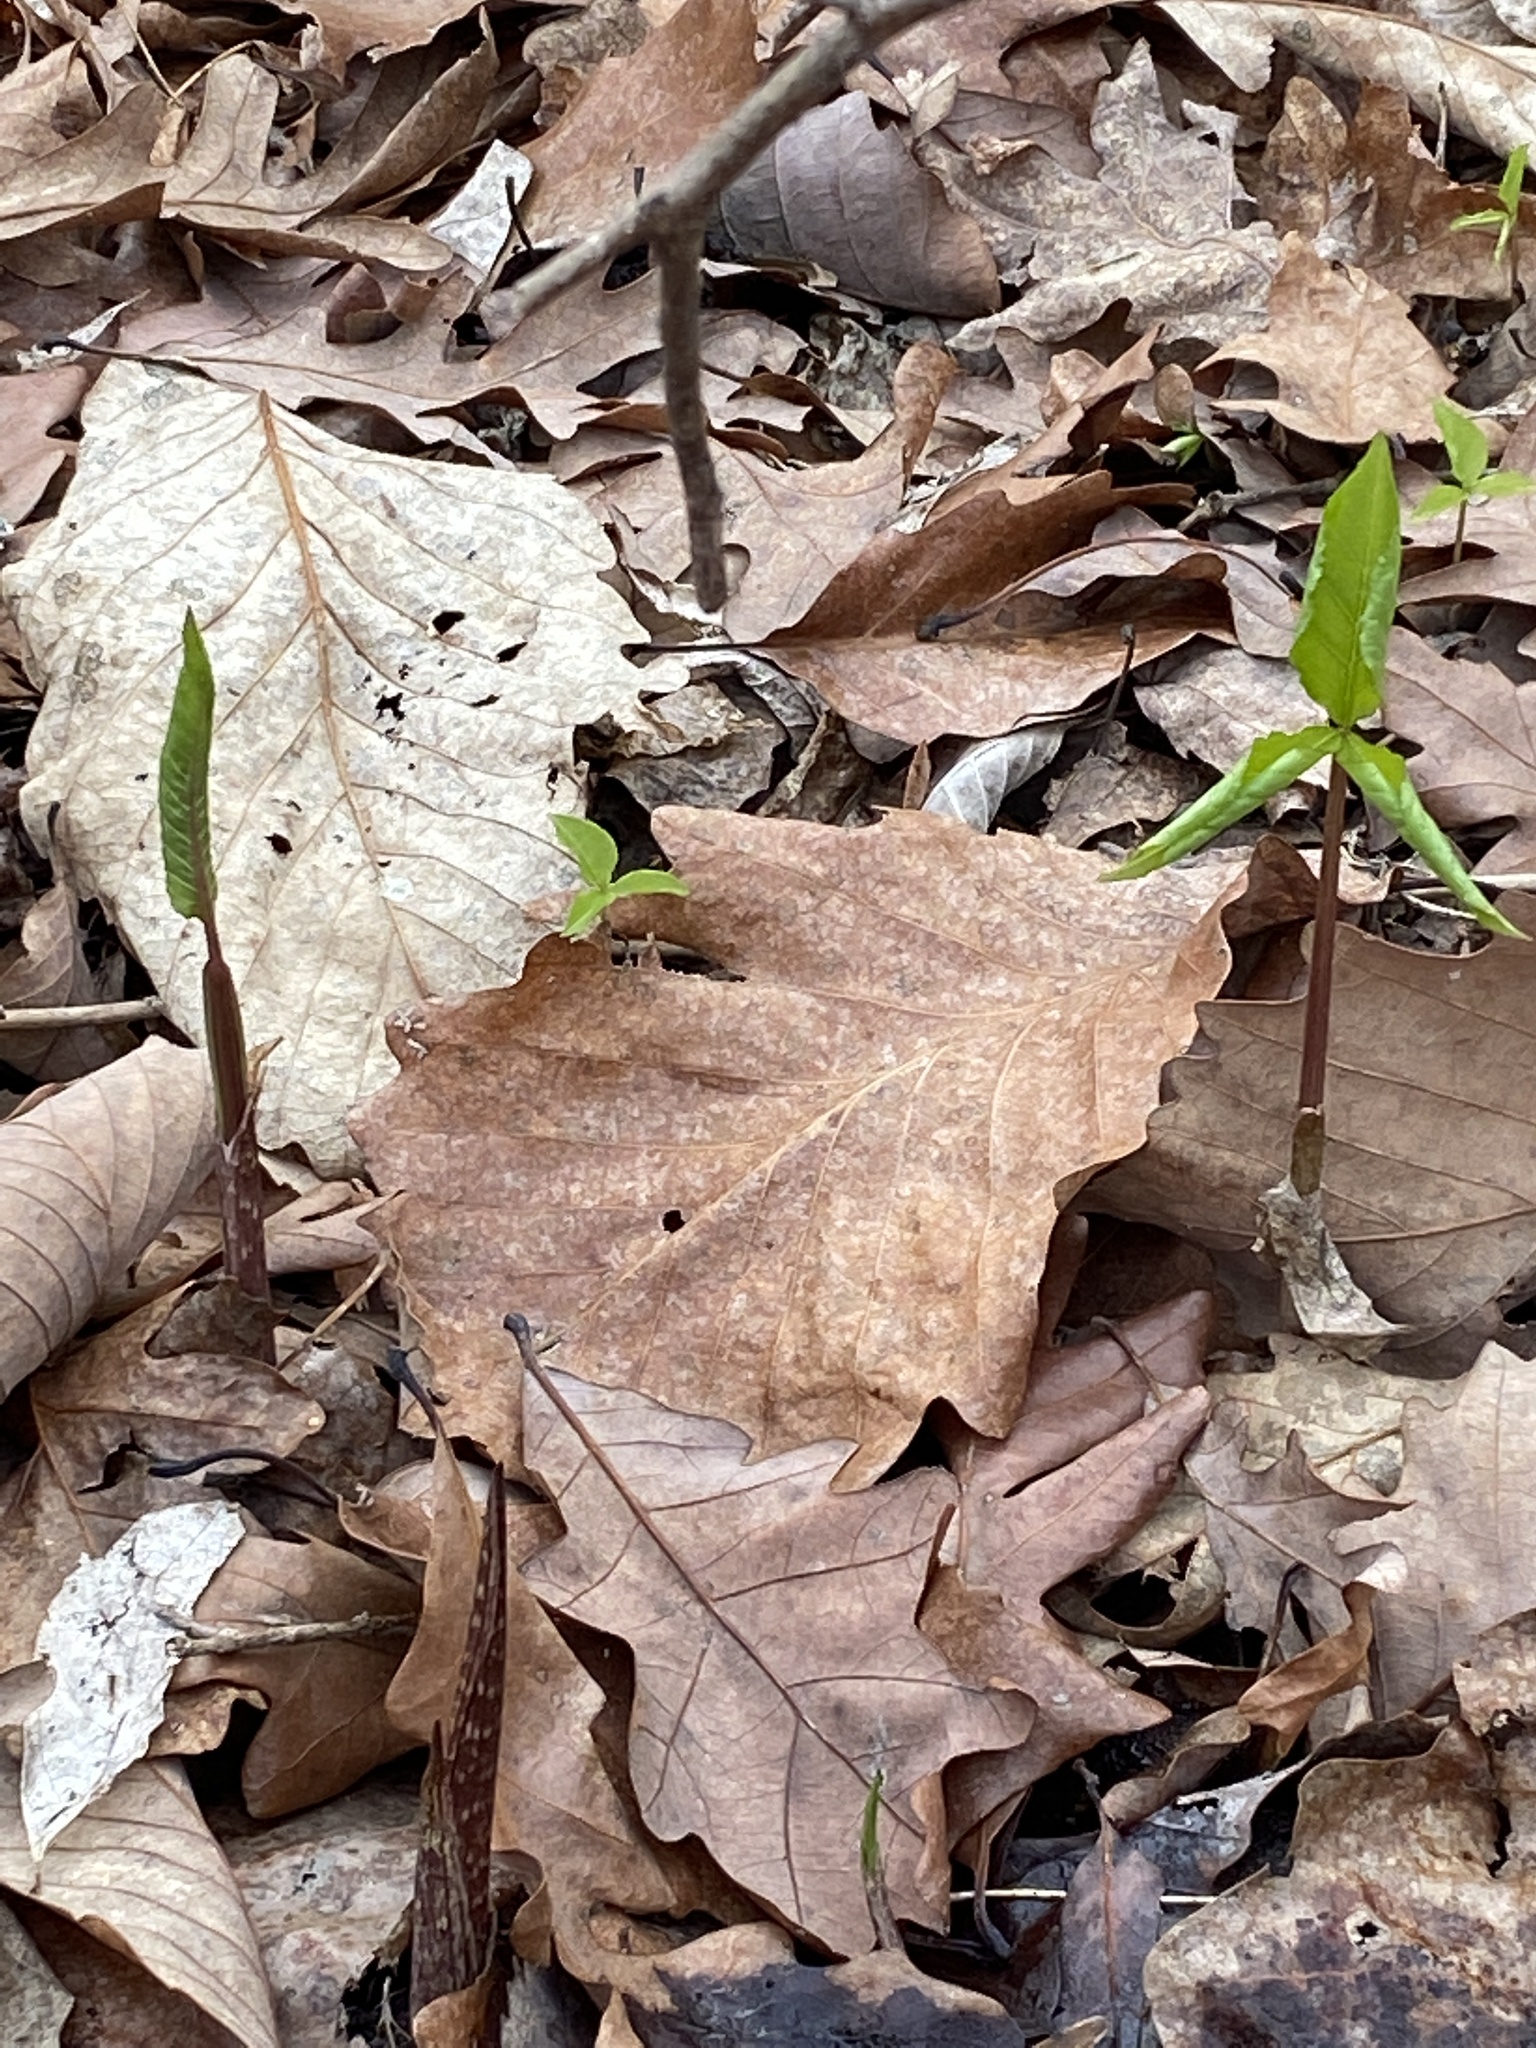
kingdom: Plantae
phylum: Tracheophyta
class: Liliopsida
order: Alismatales
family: Araceae
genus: Arisaema
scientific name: Arisaema triphyllum
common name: Jack-in-the-pulpit
